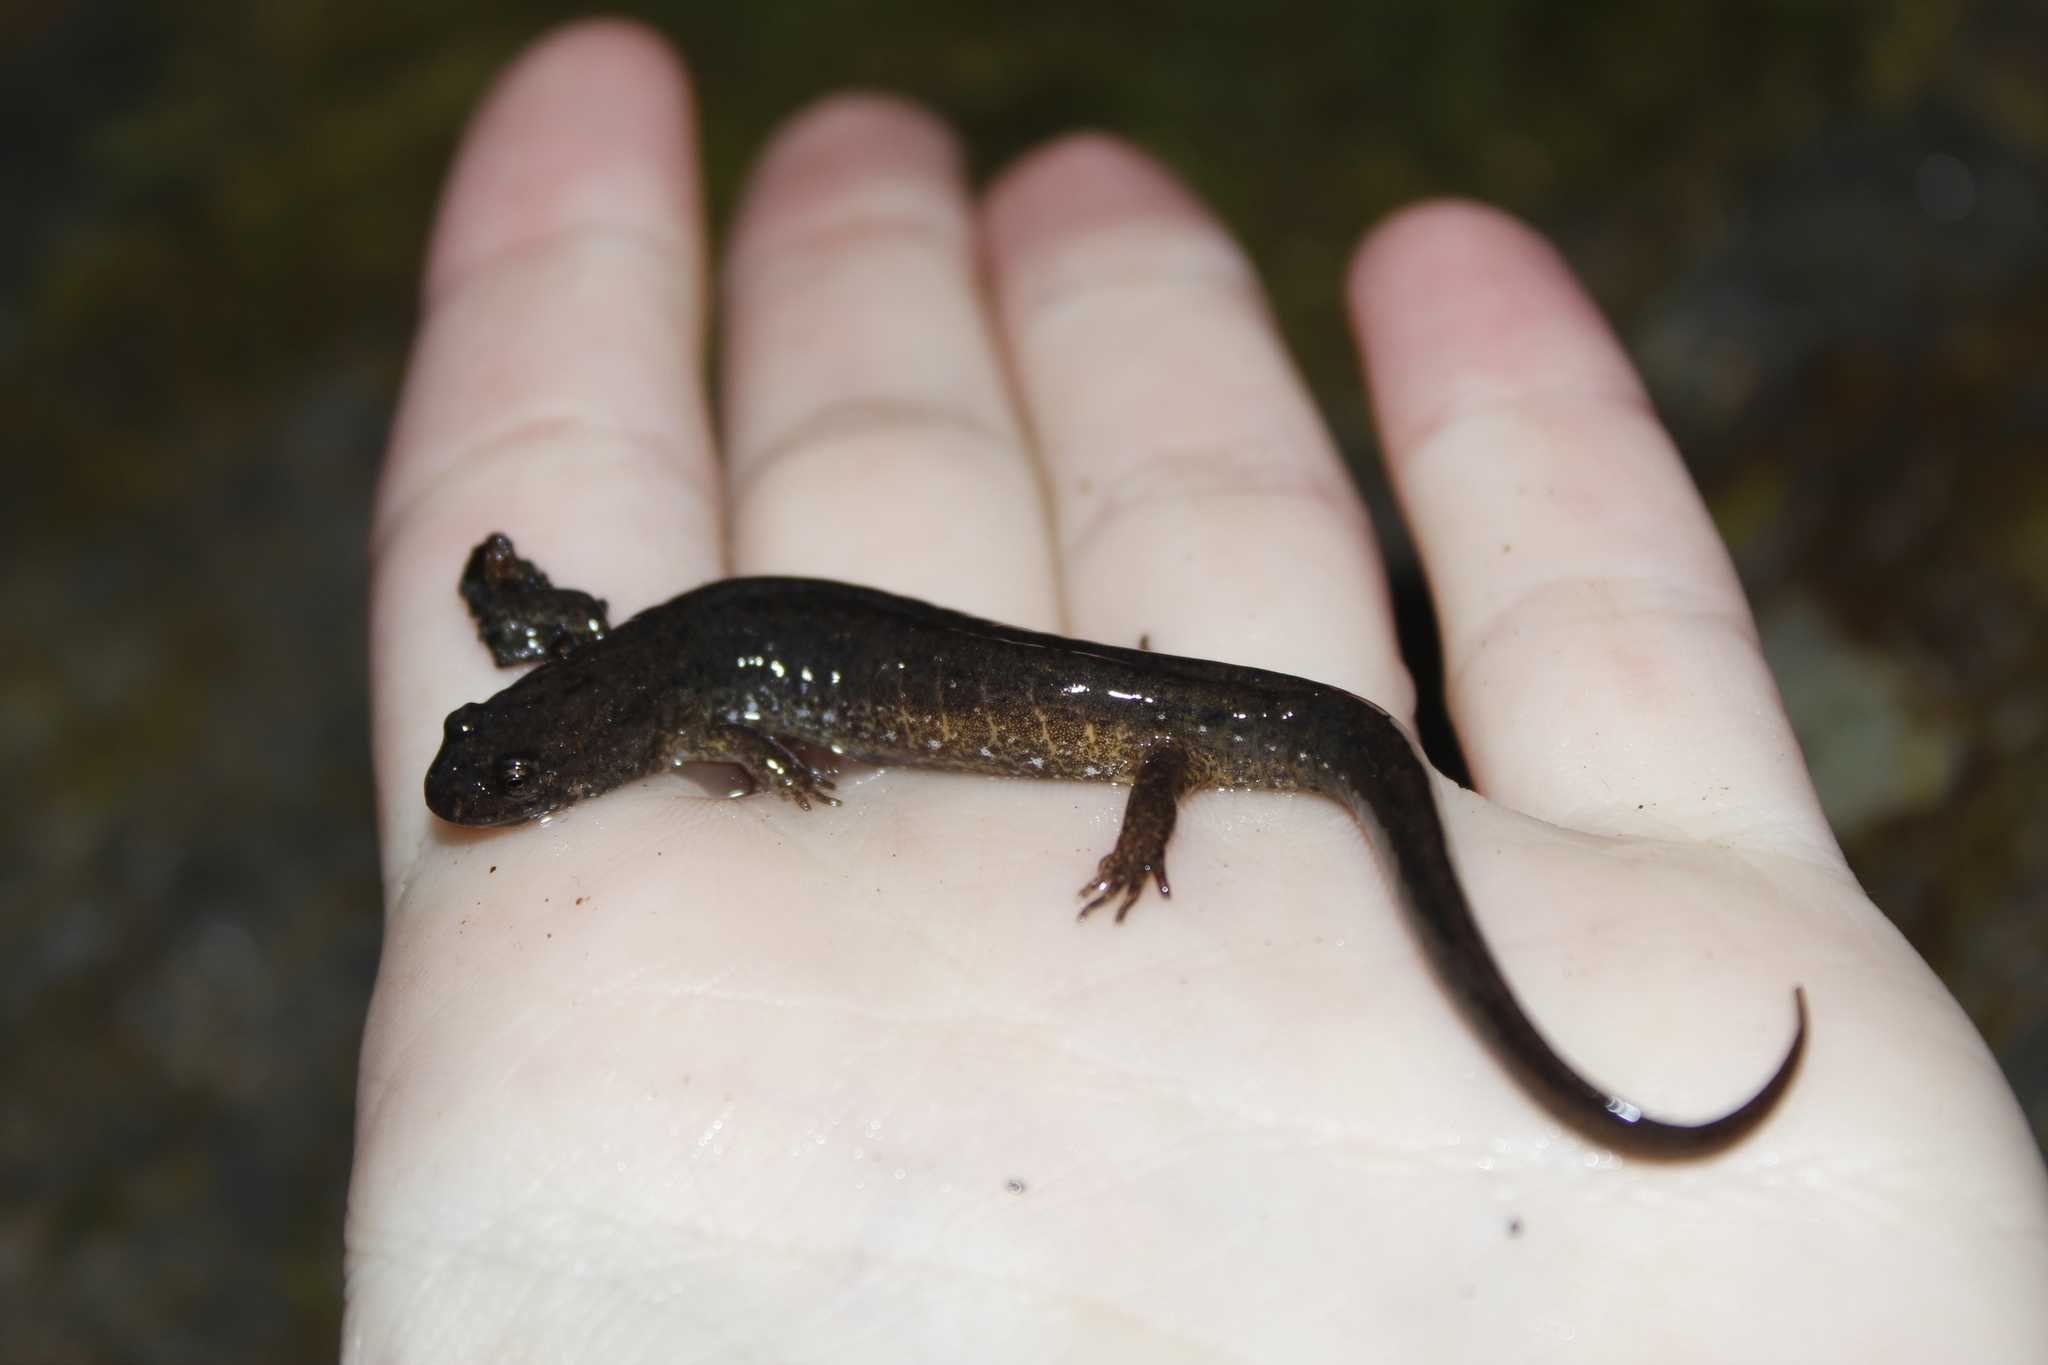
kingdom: Animalia
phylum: Chordata
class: Amphibia
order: Caudata
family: Plethodontidae
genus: Desmognathus
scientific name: Desmognathus fuscus
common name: Northern dusky salamander
